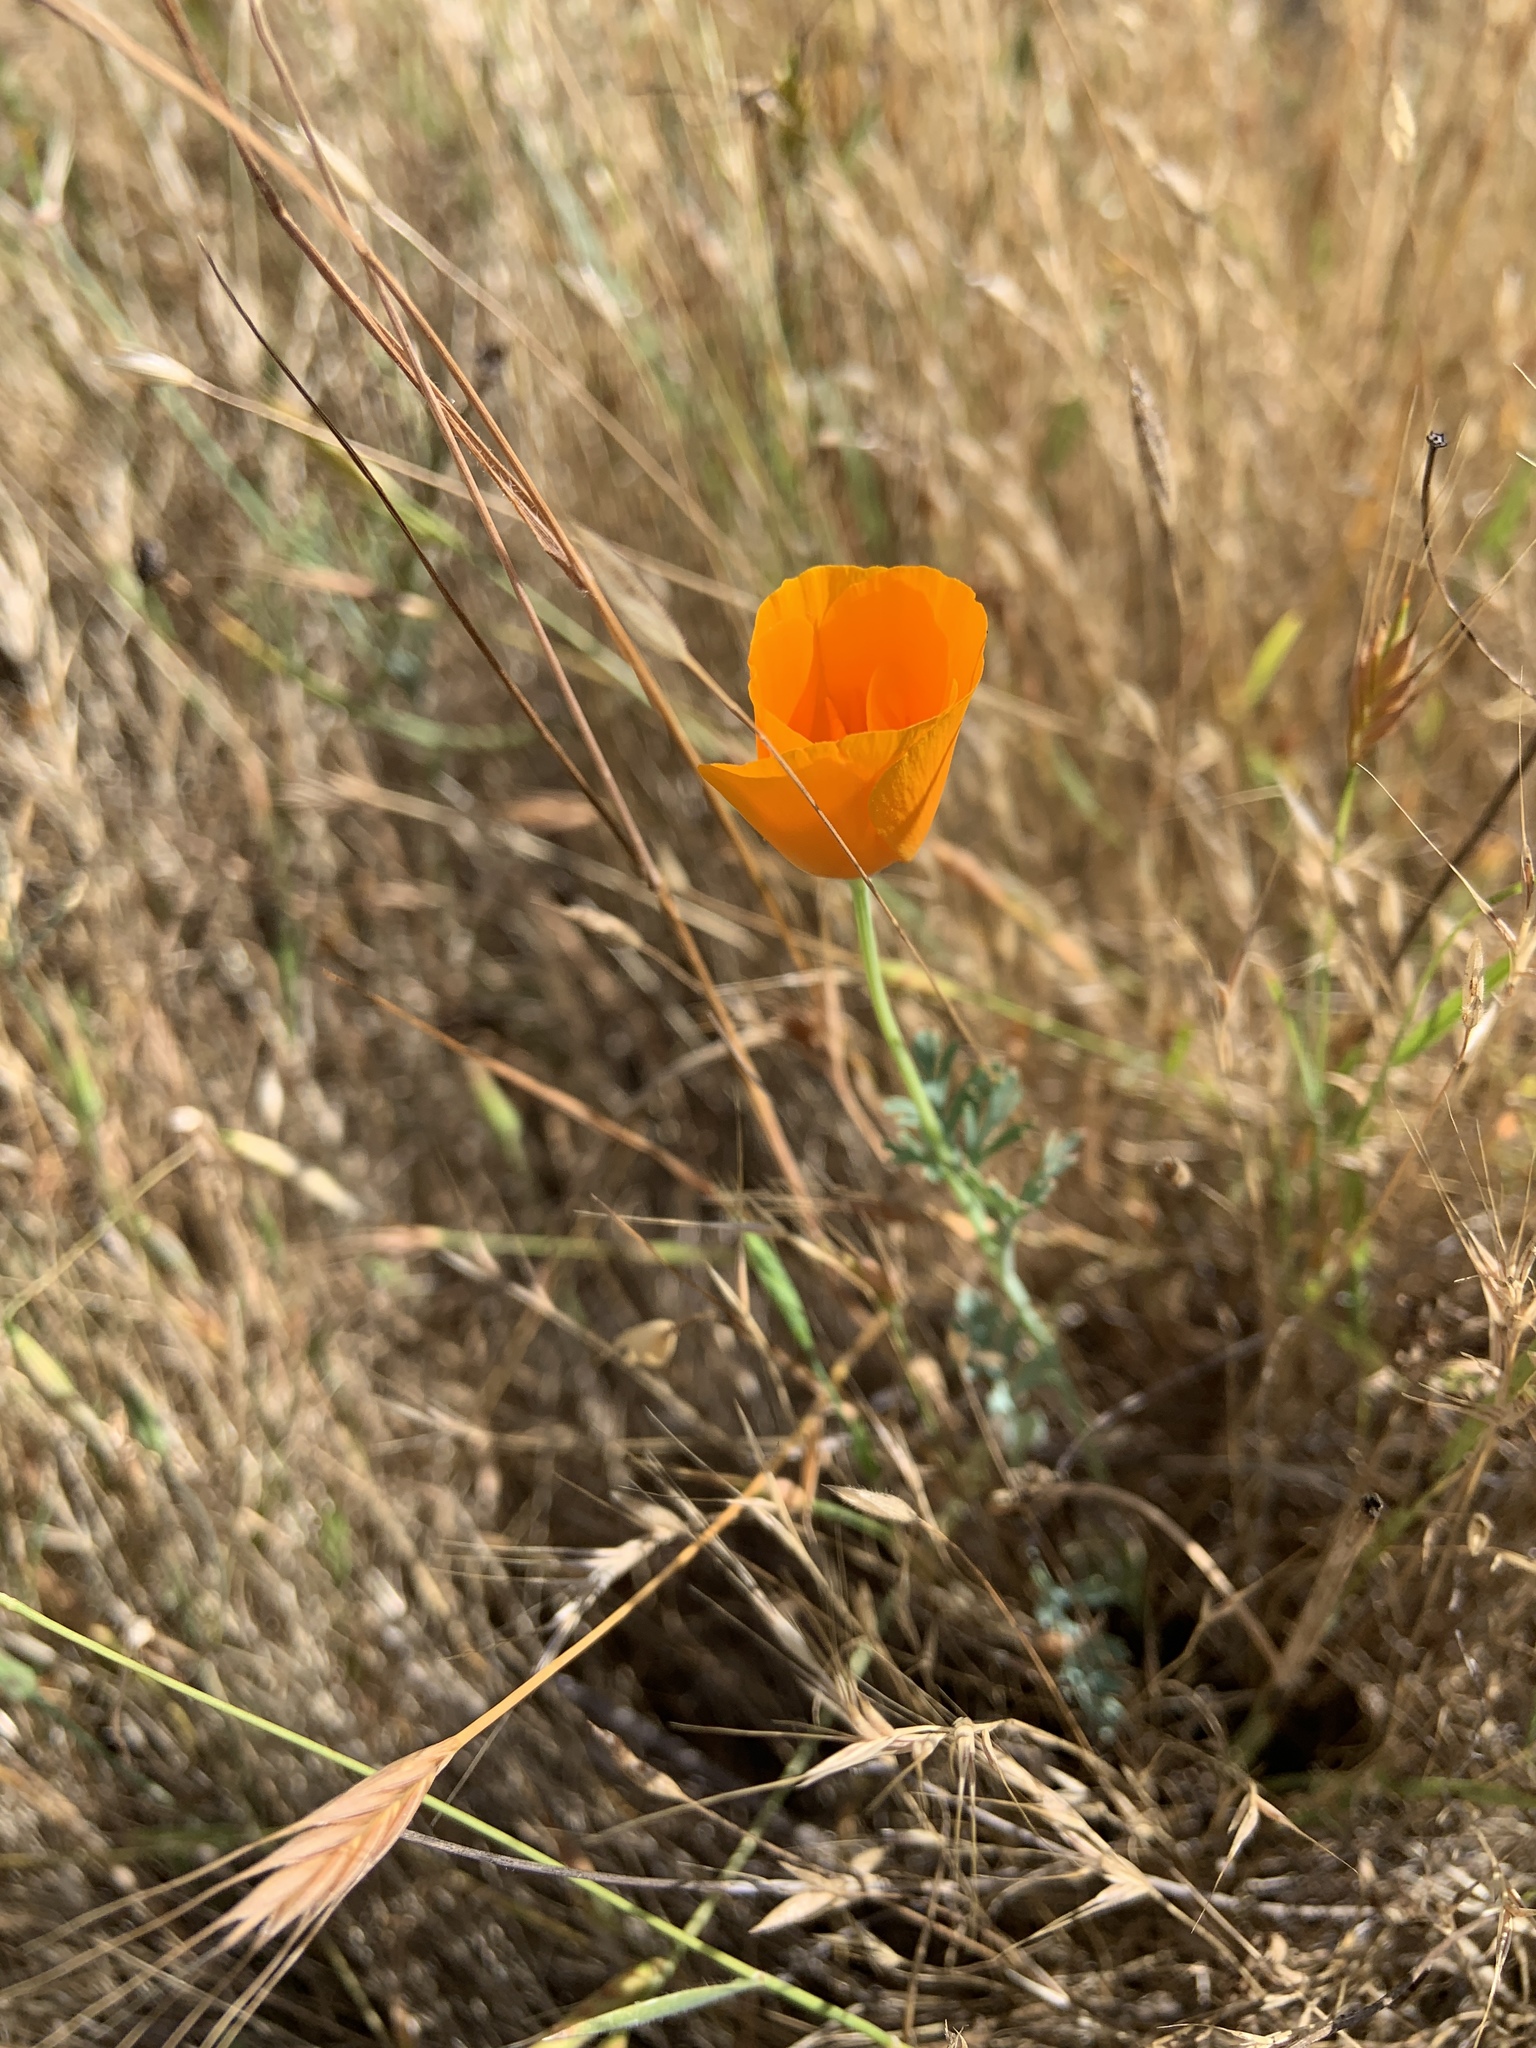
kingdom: Plantae
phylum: Tracheophyta
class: Magnoliopsida
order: Ranunculales
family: Papaveraceae
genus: Eschscholzia
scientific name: Eschscholzia californica
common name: California poppy
